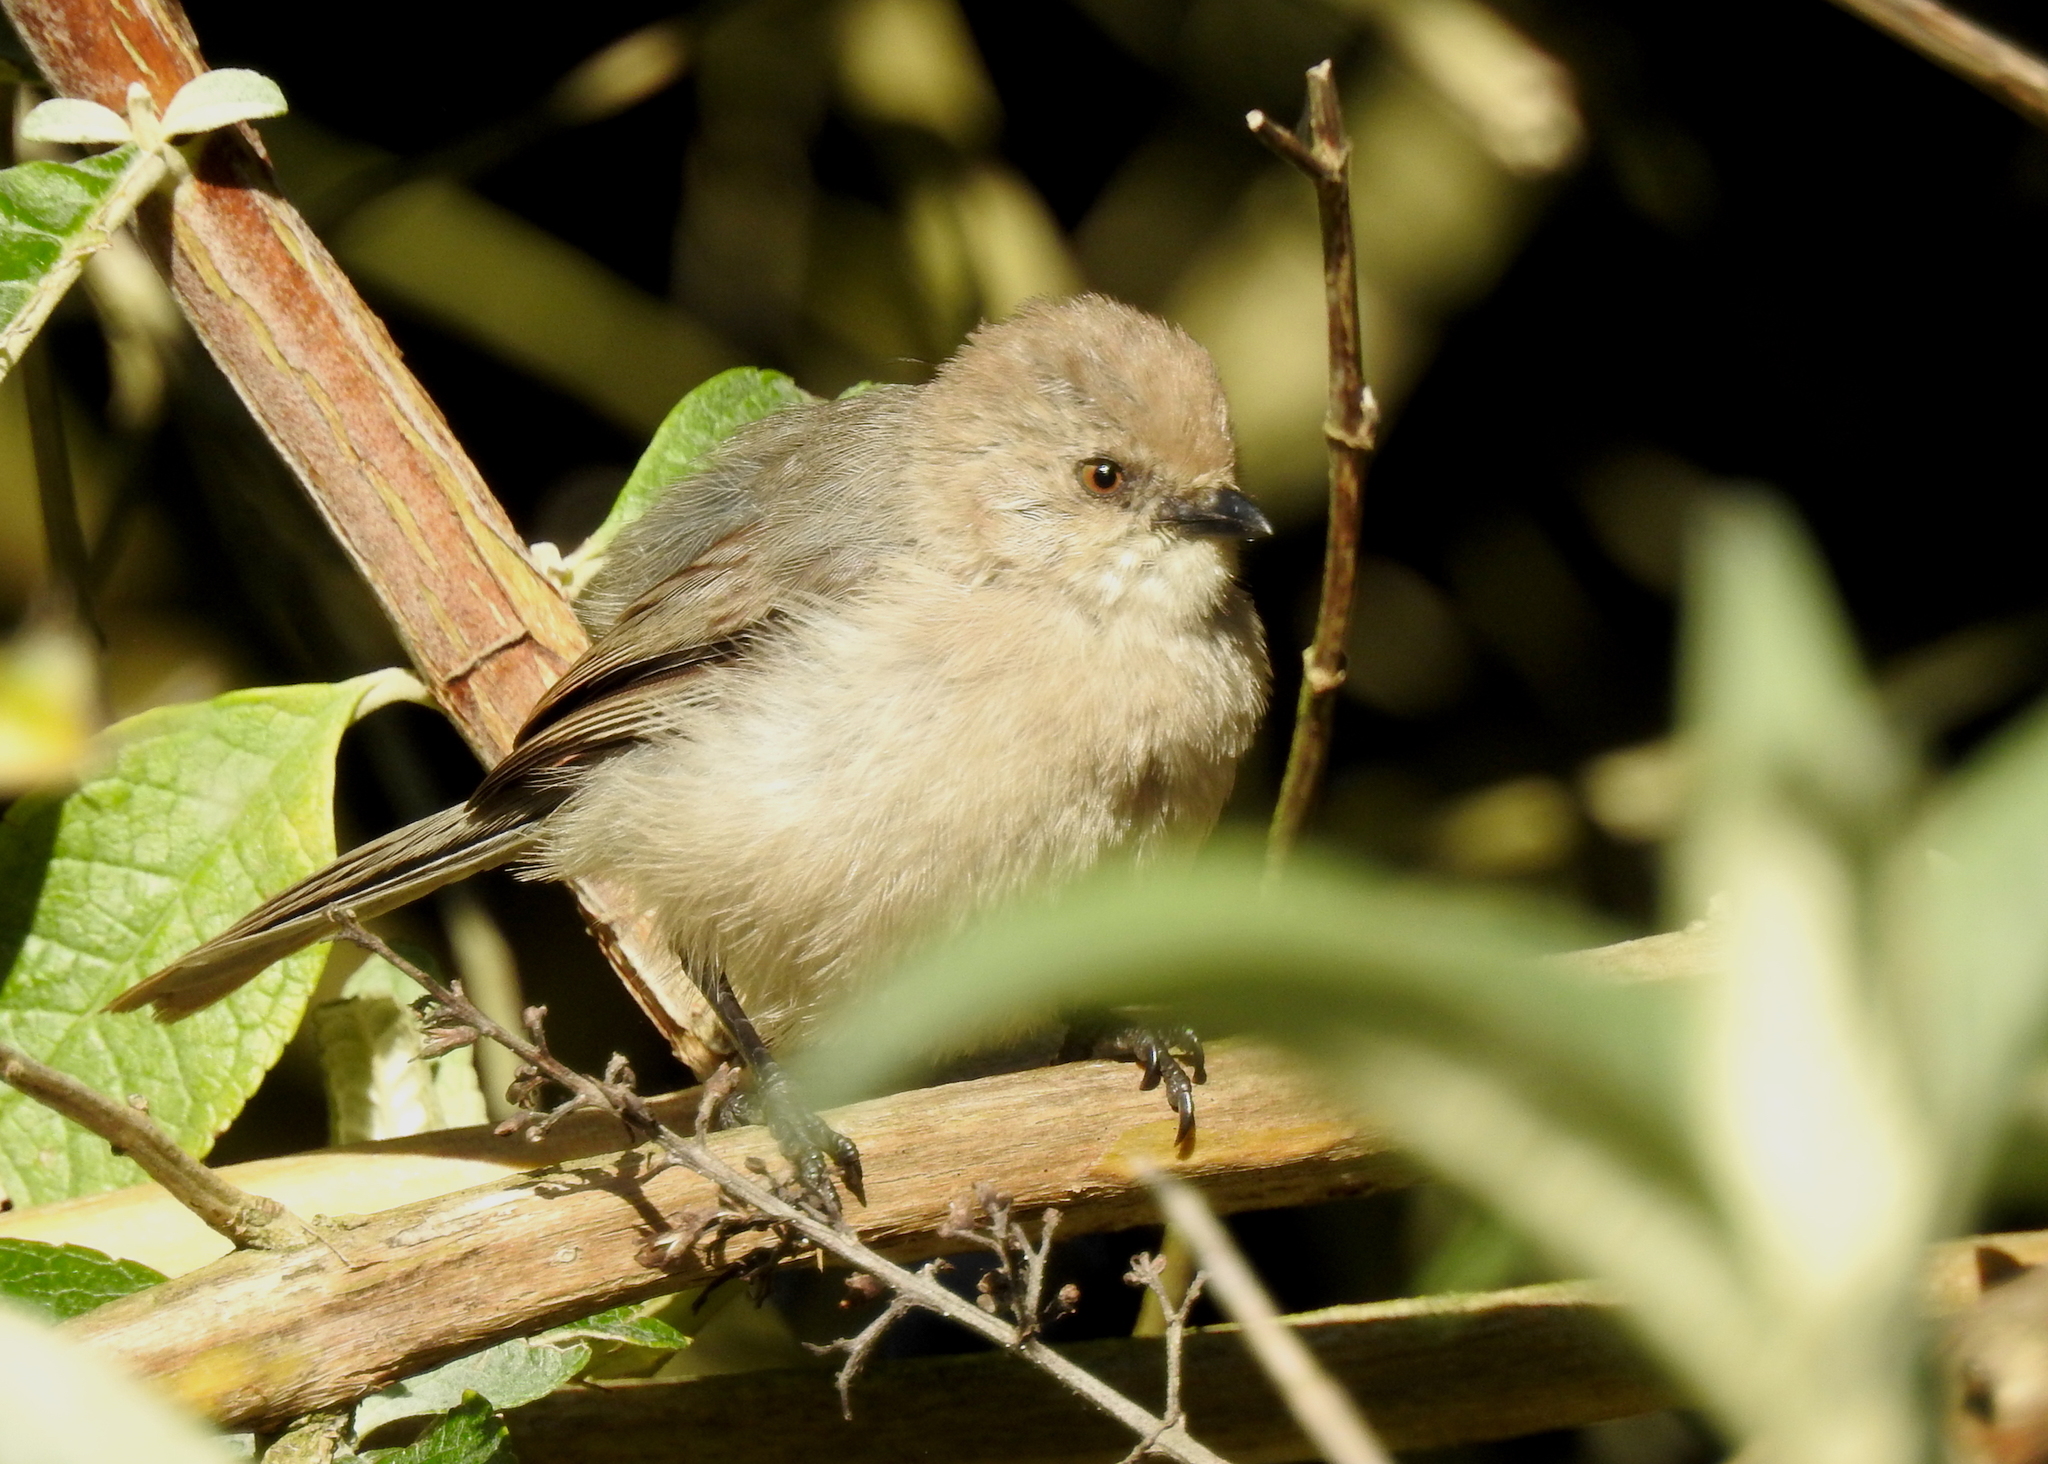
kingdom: Animalia
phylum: Chordata
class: Aves
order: Passeriformes
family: Aegithalidae
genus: Psaltriparus
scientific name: Psaltriparus minimus
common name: American bushtit
